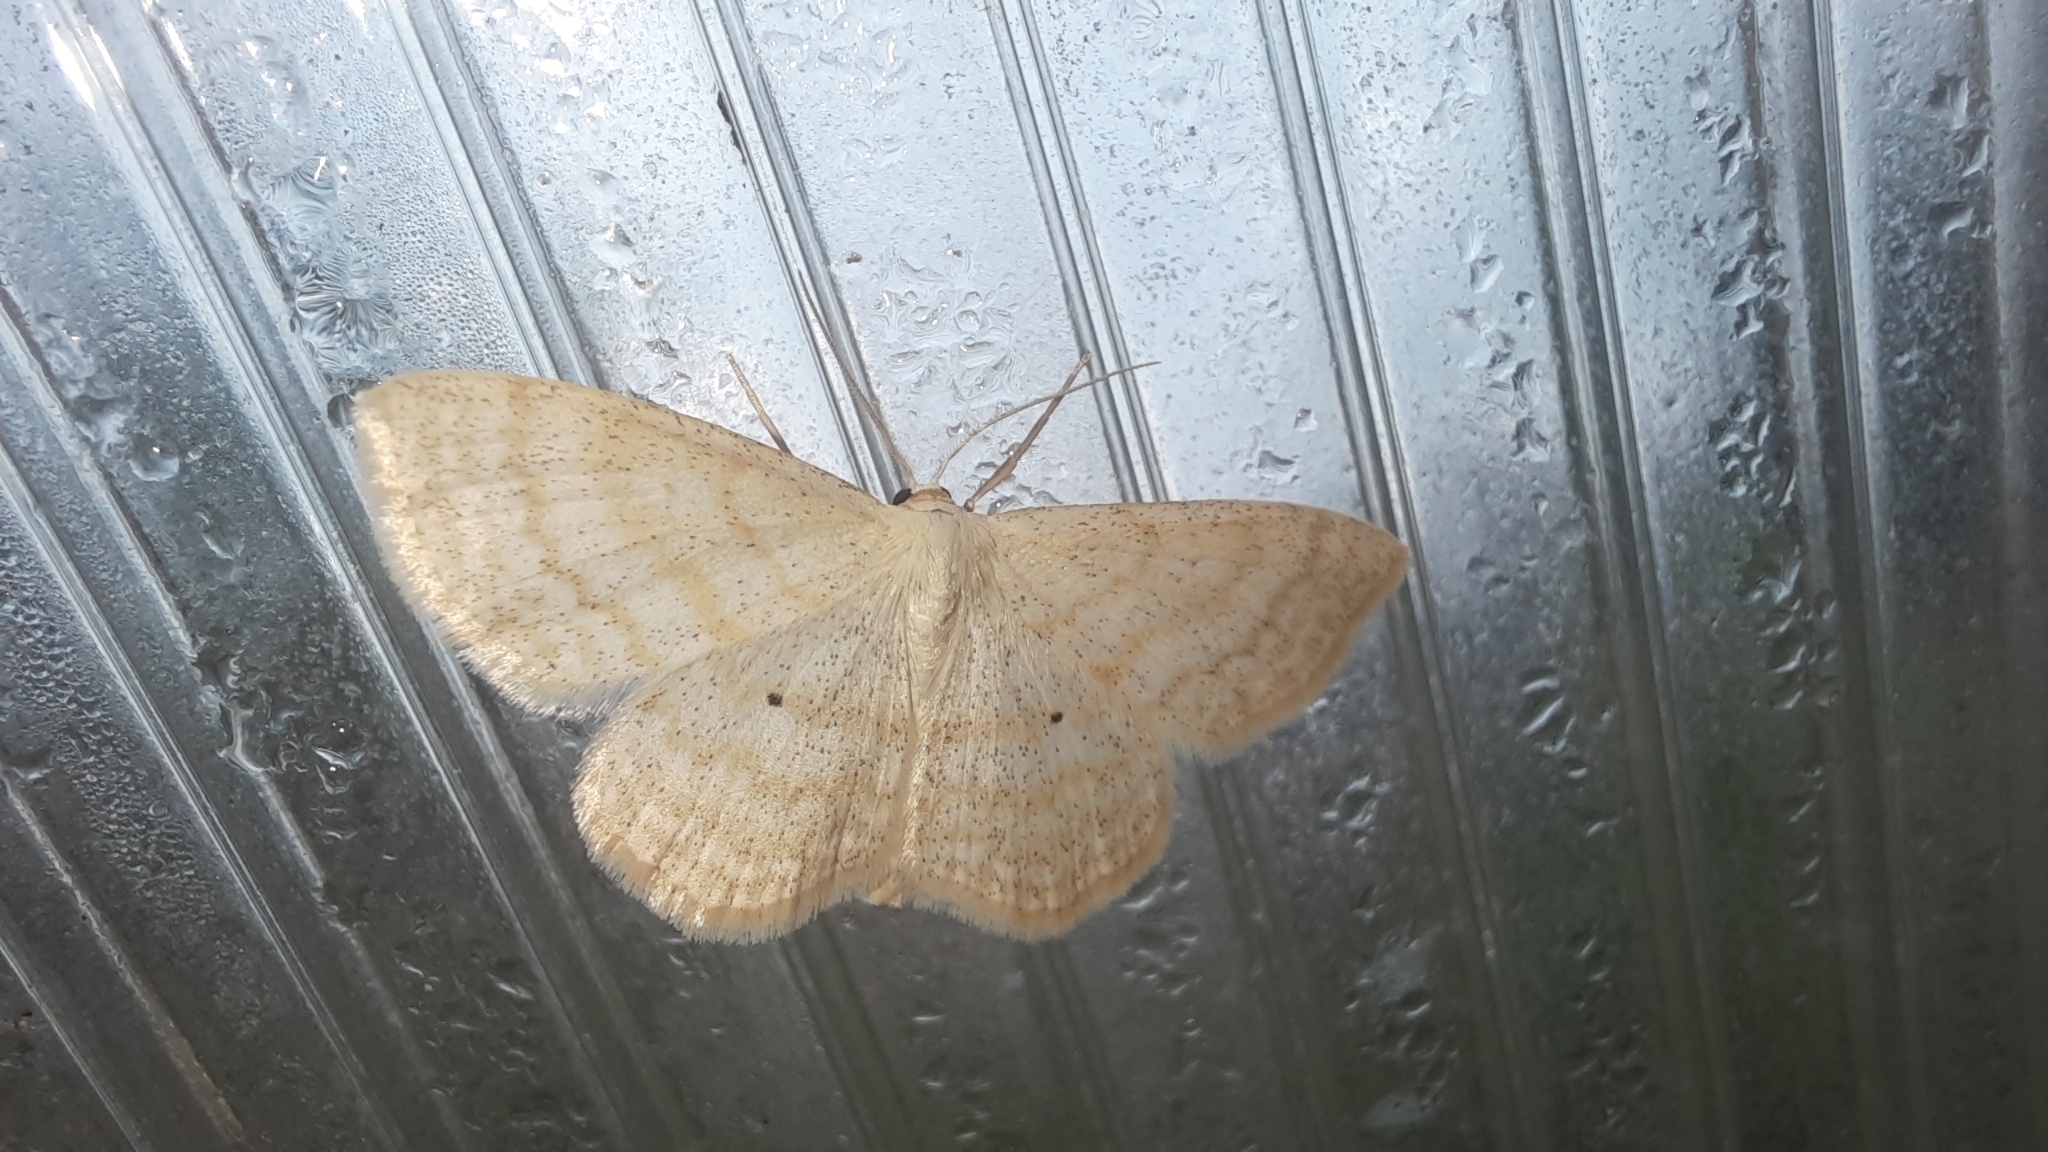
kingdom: Animalia
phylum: Arthropoda
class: Insecta
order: Lepidoptera
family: Geometridae
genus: Scopula
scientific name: Scopula immutata
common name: Lesser cream wave
